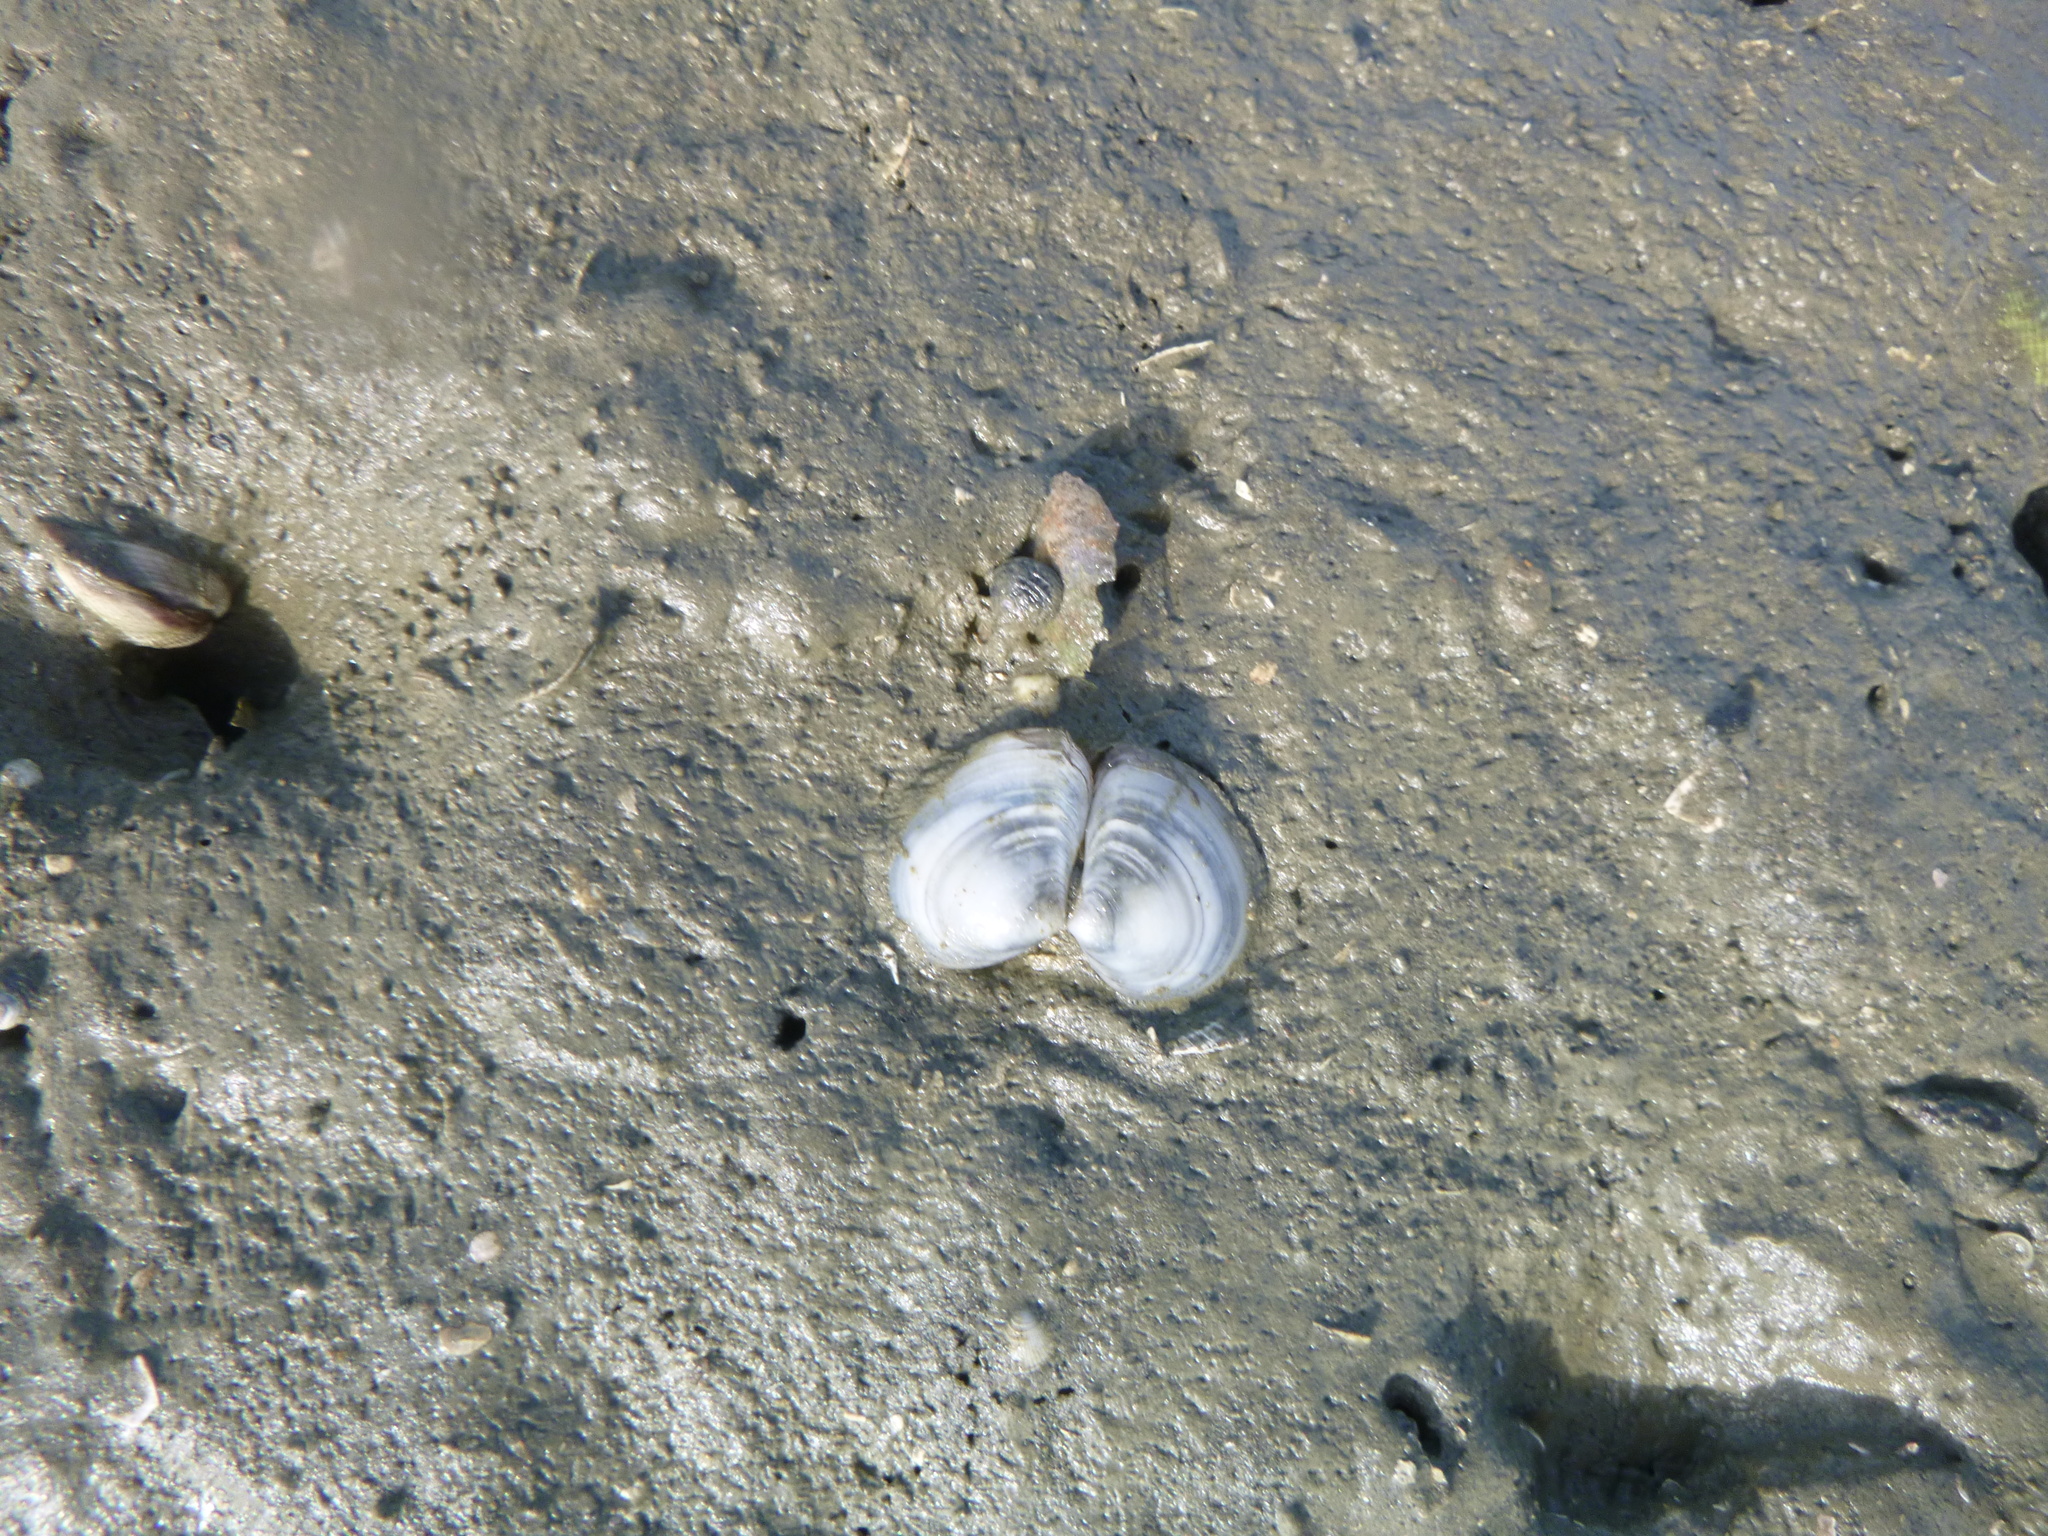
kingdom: Animalia
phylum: Mollusca
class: Bivalvia
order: Cardiida
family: Tellinidae
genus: Macomona
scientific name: Macomona liliana
